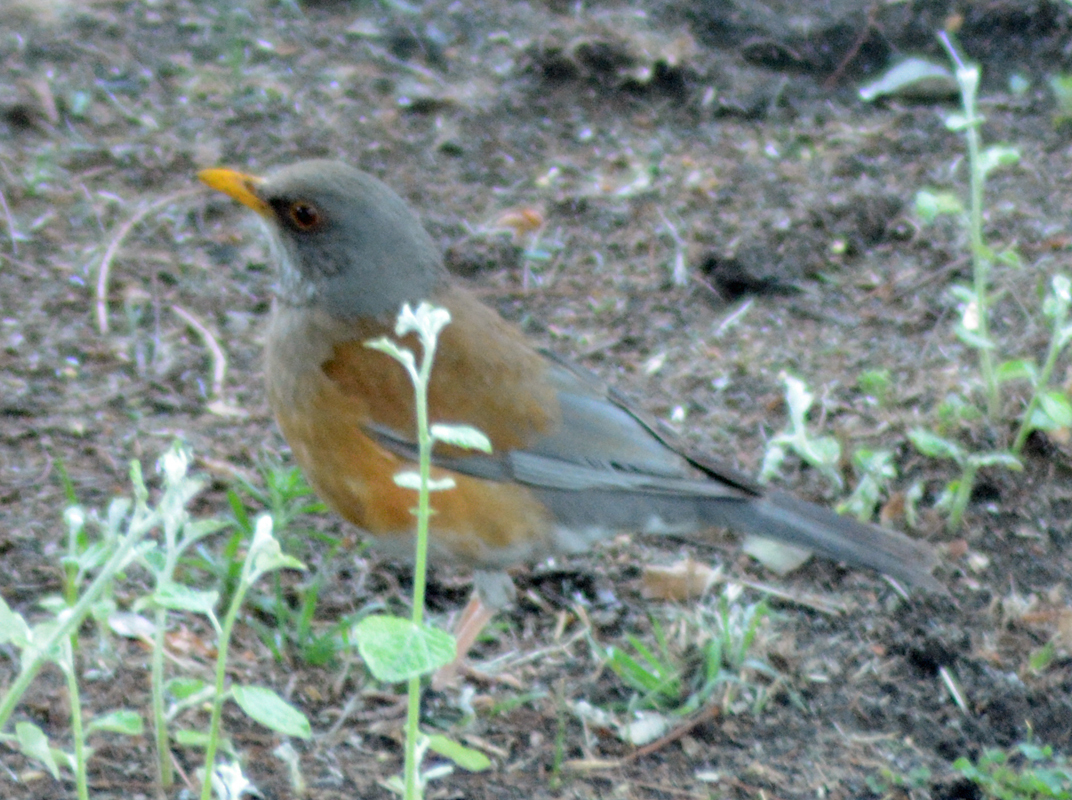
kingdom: Animalia
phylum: Chordata
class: Aves
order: Passeriformes
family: Turdidae
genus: Turdus
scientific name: Turdus rufopalliatus
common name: Rufous-backed robin
